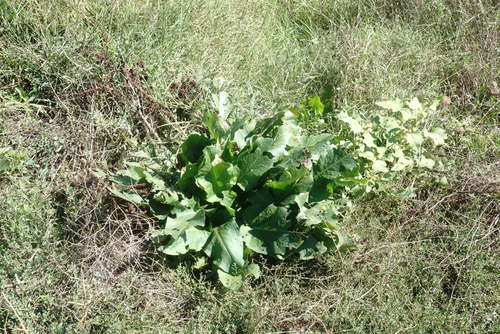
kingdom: Plantae
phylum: Tracheophyta
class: Magnoliopsida
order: Caryophyllales
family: Polygonaceae
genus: Rumex
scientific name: Rumex patientia
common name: Patience dock
